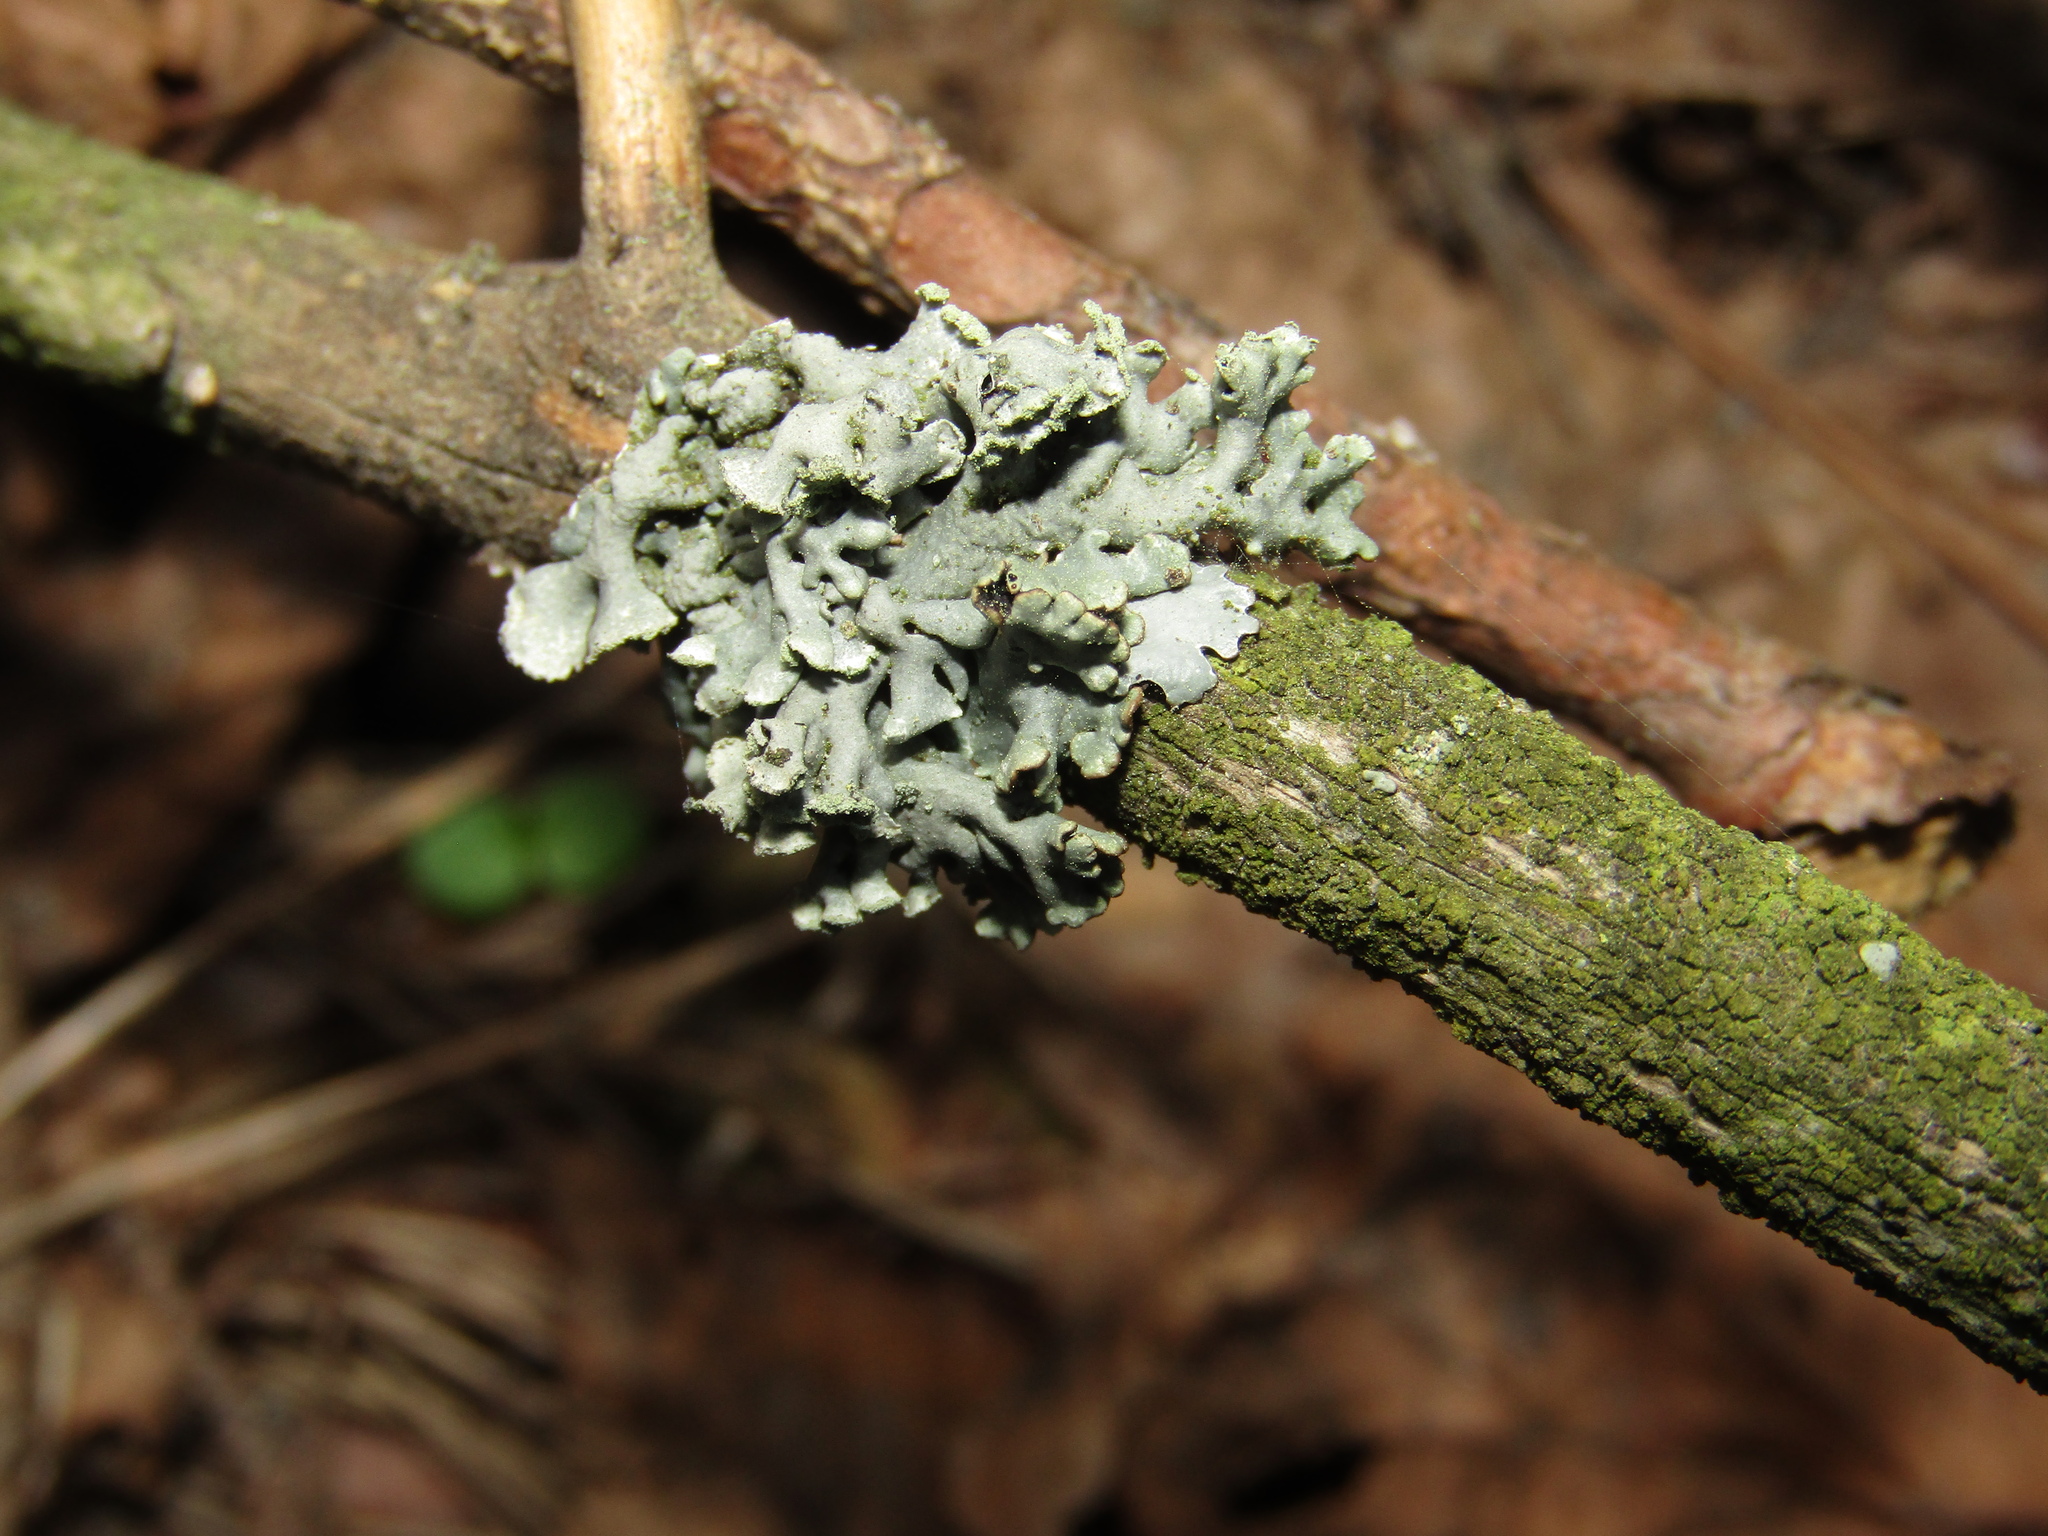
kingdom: Fungi
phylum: Ascomycota
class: Lecanoromycetes
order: Lecanorales
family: Parmeliaceae
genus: Hypogymnia
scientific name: Hypogymnia physodes
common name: Dark crottle
